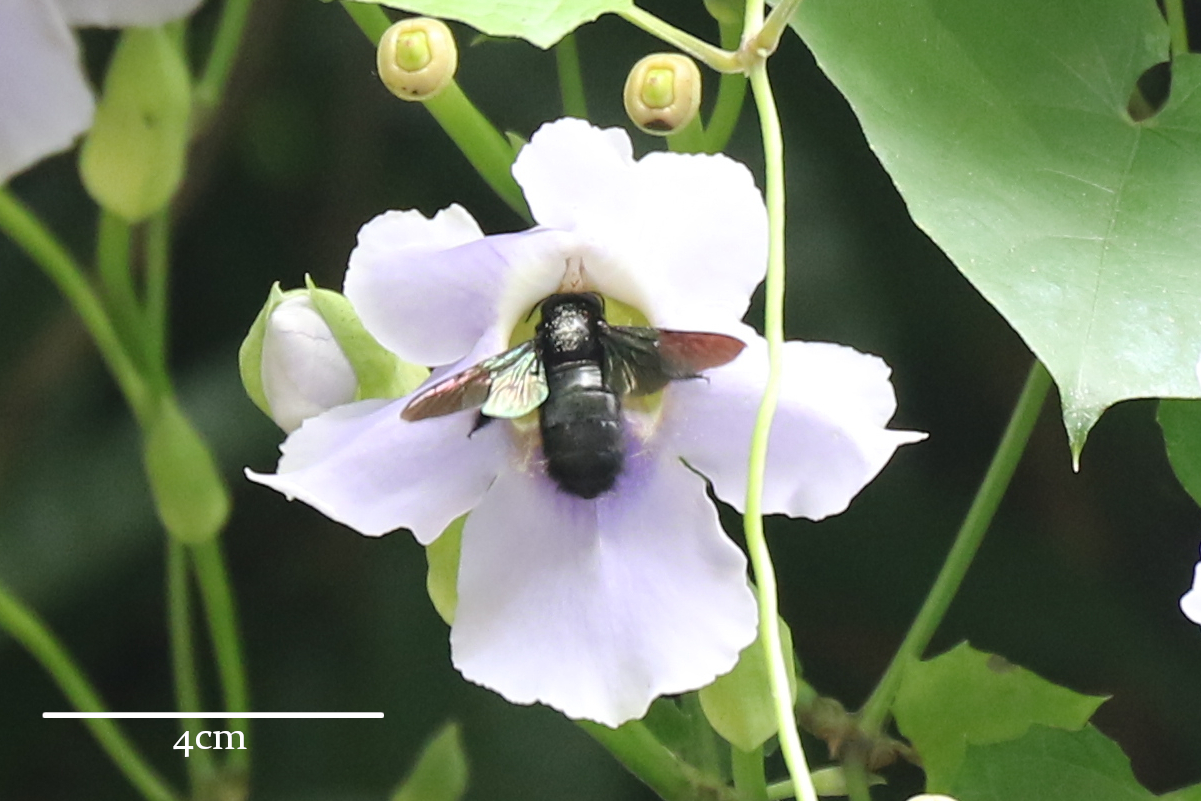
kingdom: Animalia
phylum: Arthropoda
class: Insecta
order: Hymenoptera
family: Apidae
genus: Xylocopa
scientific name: Xylocopa
